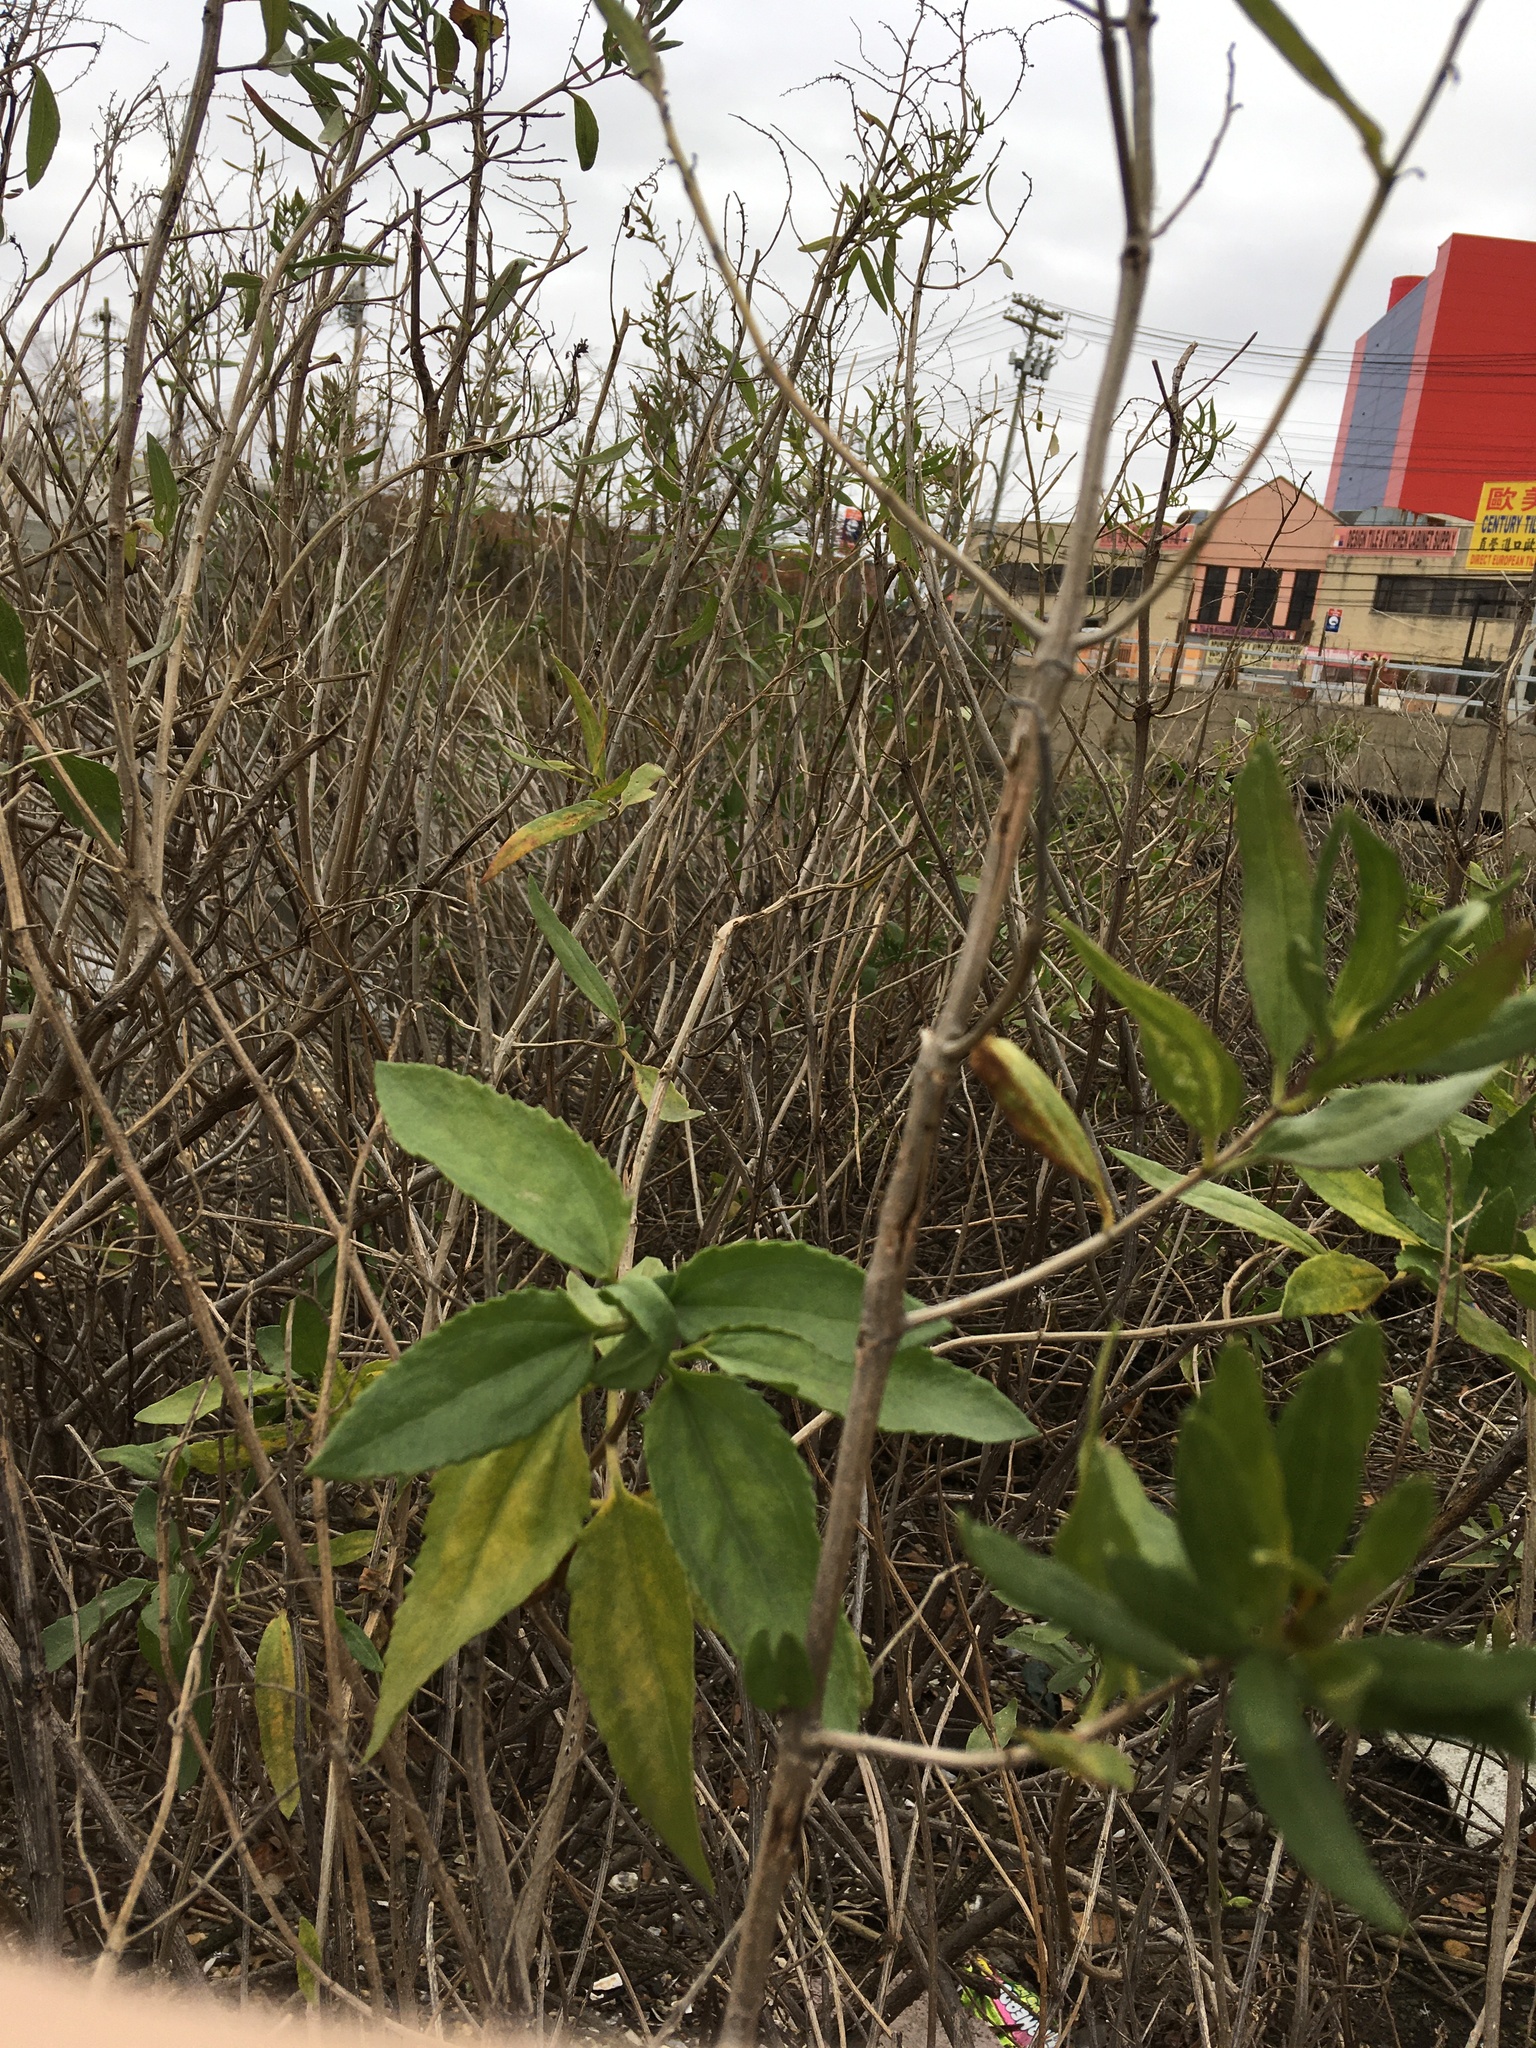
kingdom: Plantae
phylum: Tracheophyta
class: Magnoliopsida
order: Asterales
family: Asteraceae
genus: Iva
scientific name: Iva frutescens
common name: Big-leaved marsh-elder
